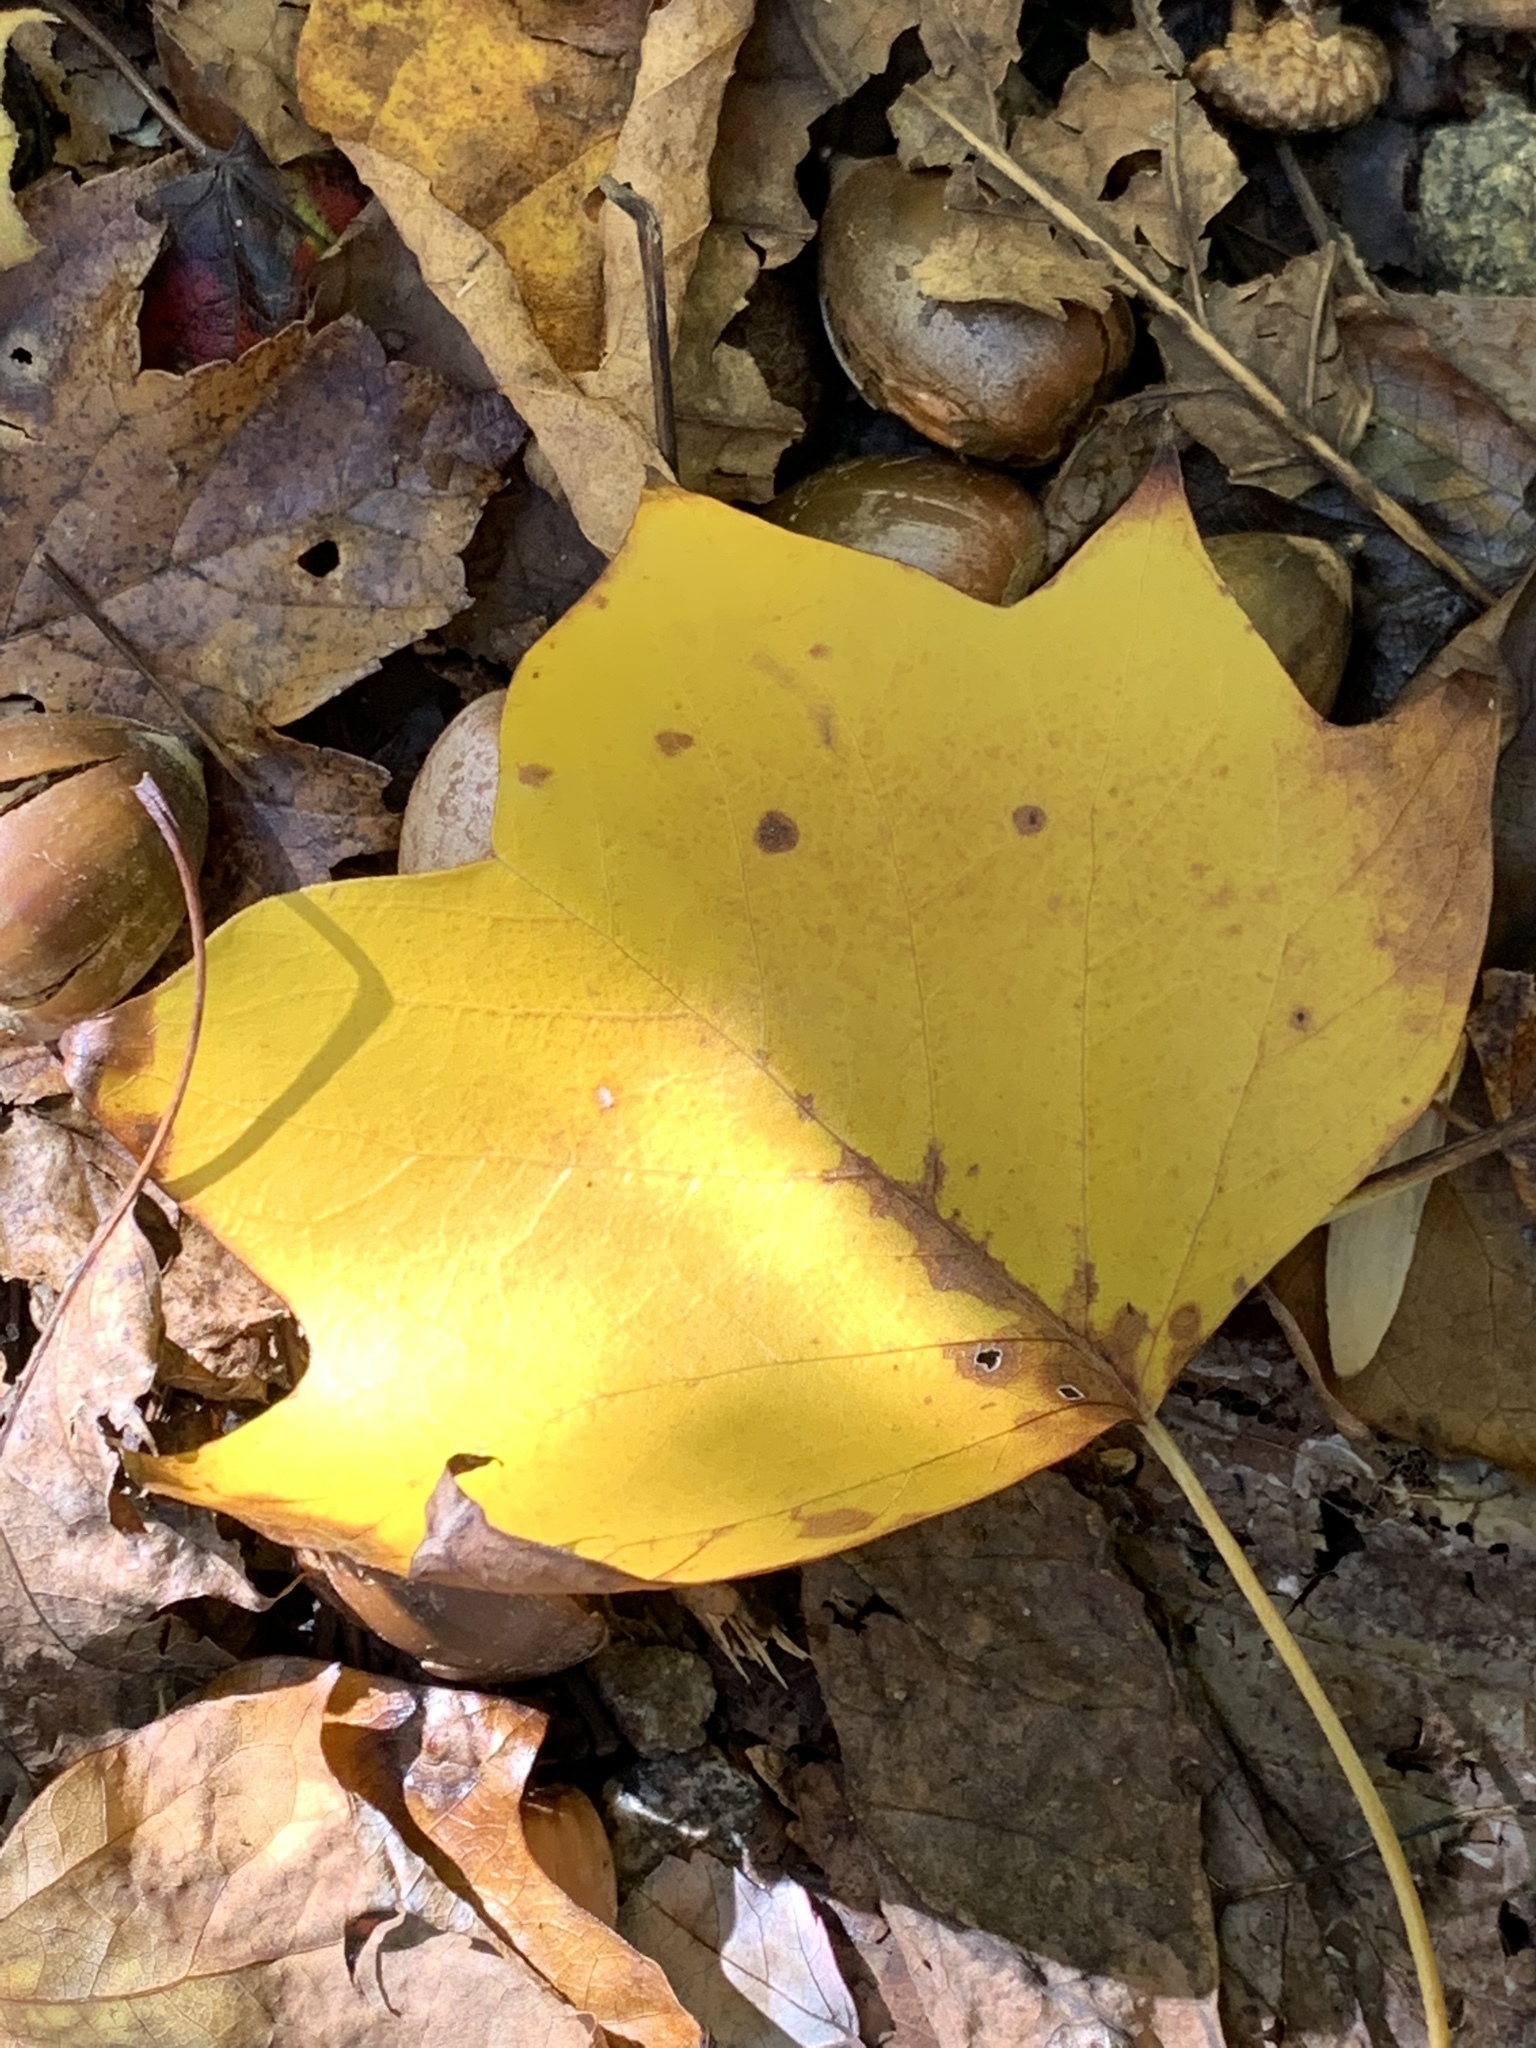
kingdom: Plantae
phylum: Tracheophyta
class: Magnoliopsida
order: Magnoliales
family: Magnoliaceae
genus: Liriodendron
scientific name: Liriodendron tulipifera
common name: Tulip tree
